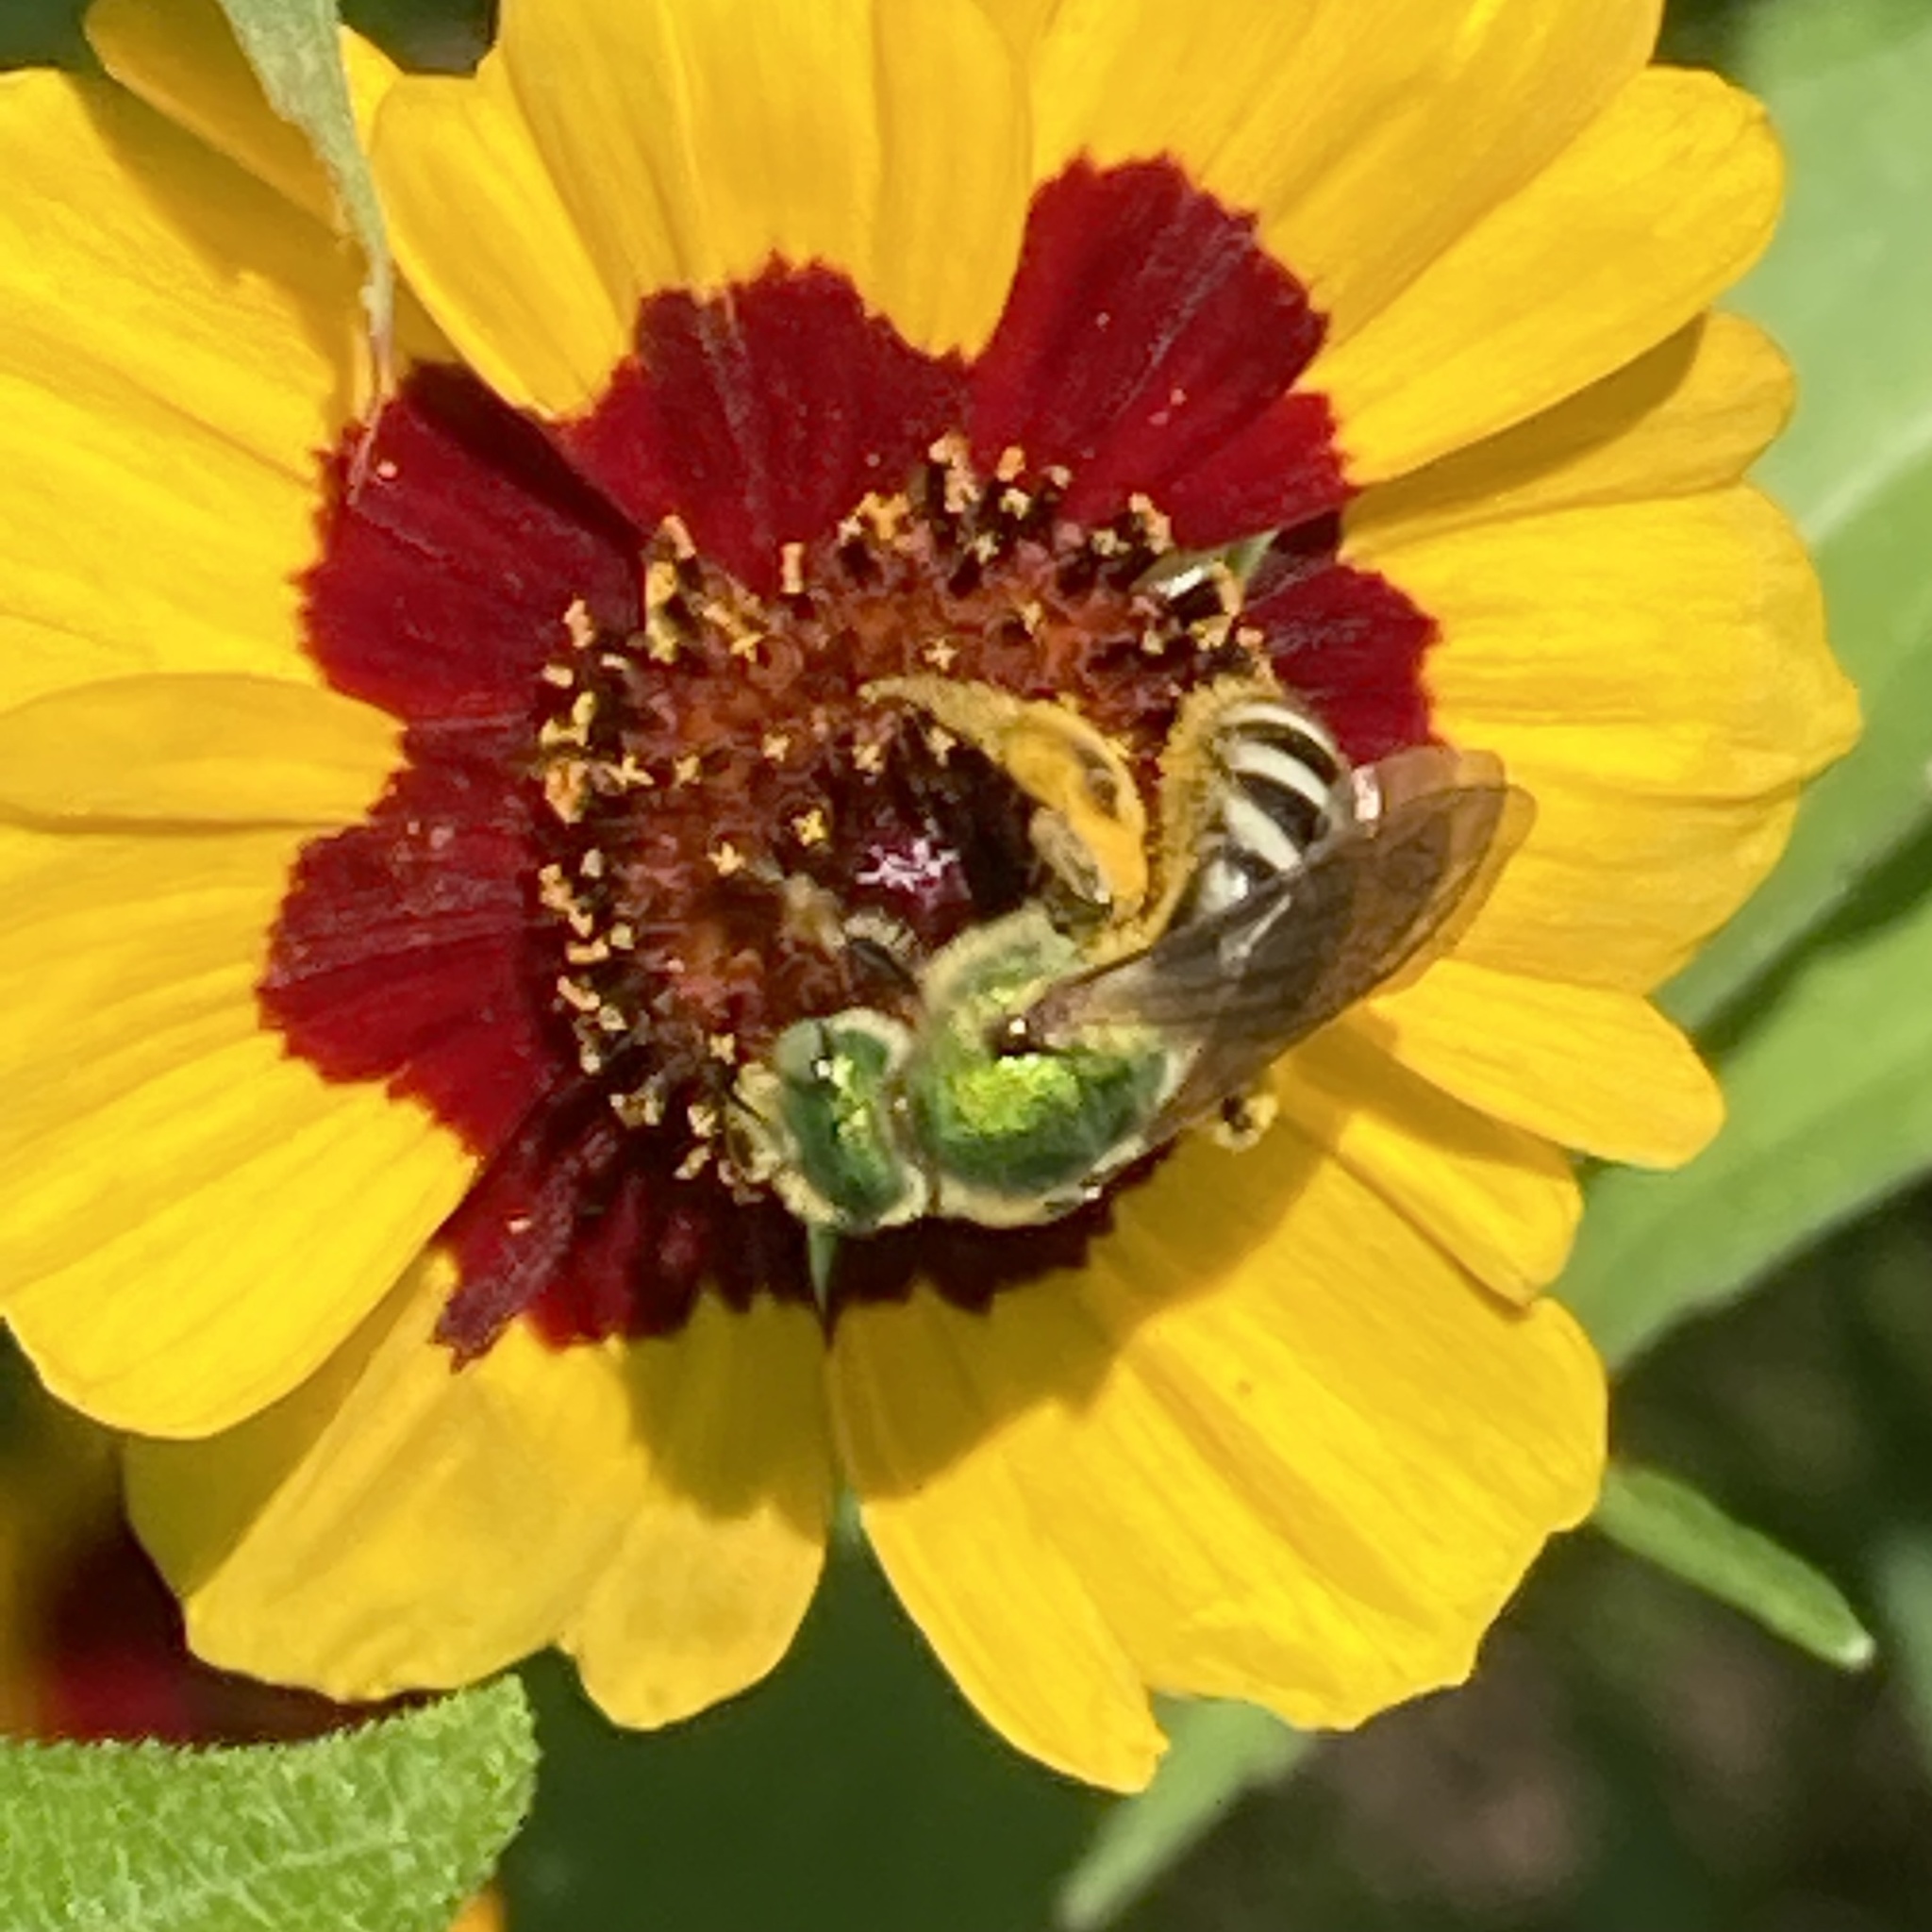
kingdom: Animalia
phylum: Arthropoda
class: Insecta
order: Hymenoptera
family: Halictidae
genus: Agapostemon
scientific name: Agapostemon virescens
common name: Bicolored striped sweat bee
